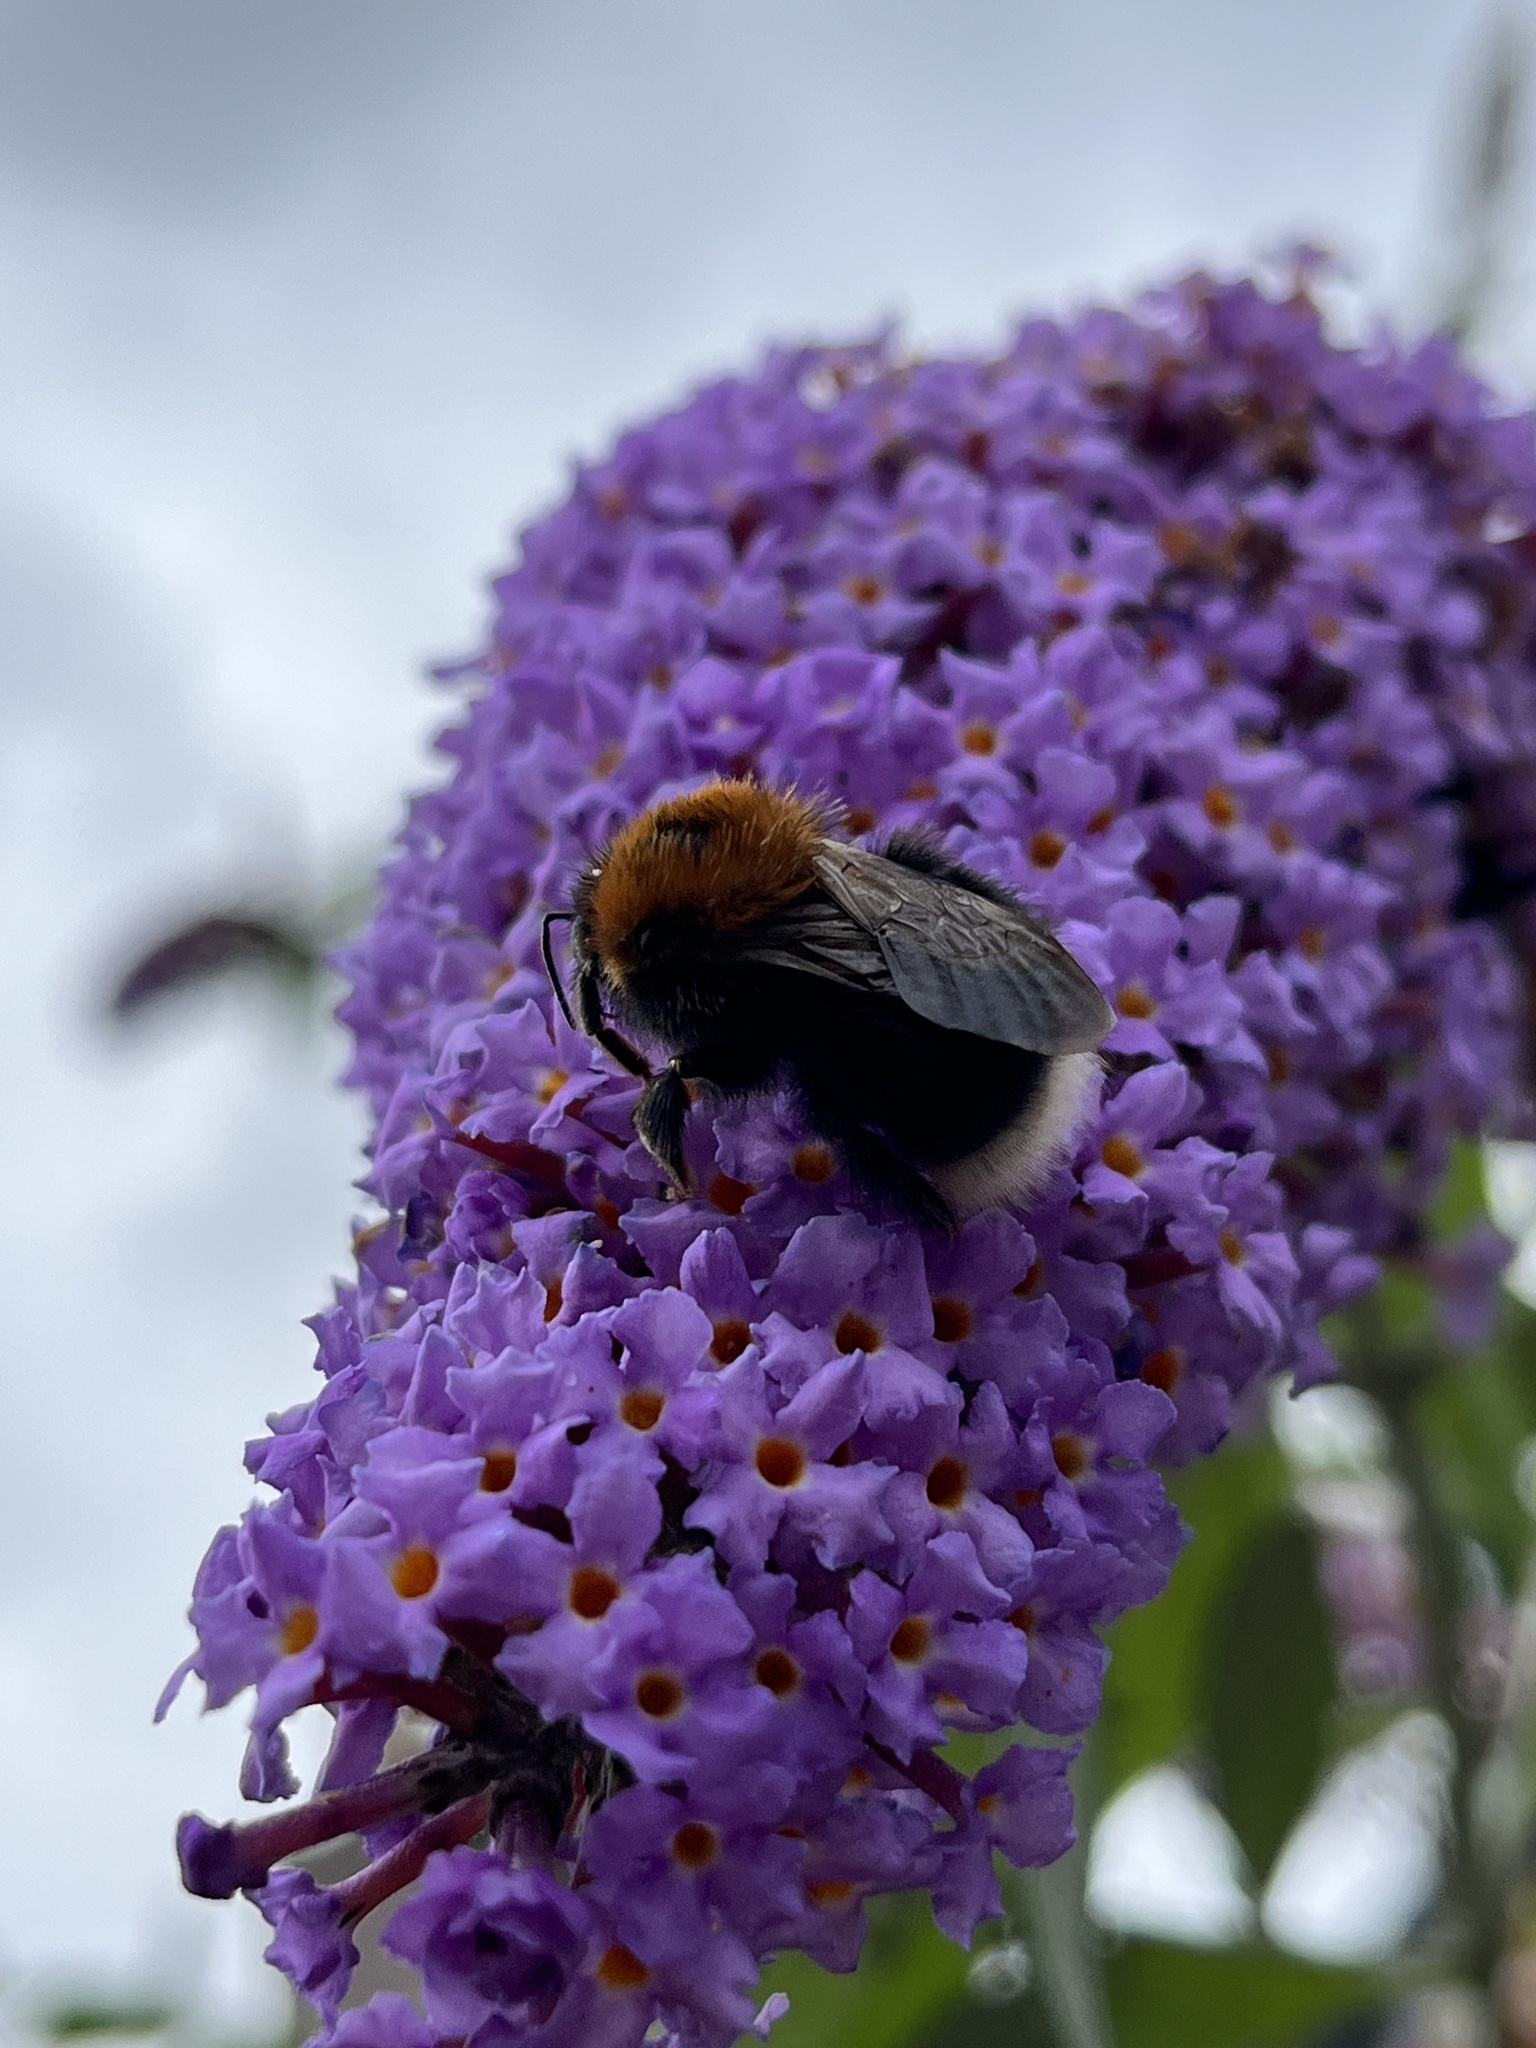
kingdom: Animalia
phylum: Arthropoda
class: Insecta
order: Hymenoptera
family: Apidae
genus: Bombus
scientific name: Bombus hypnorum
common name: New garden bumblebee
